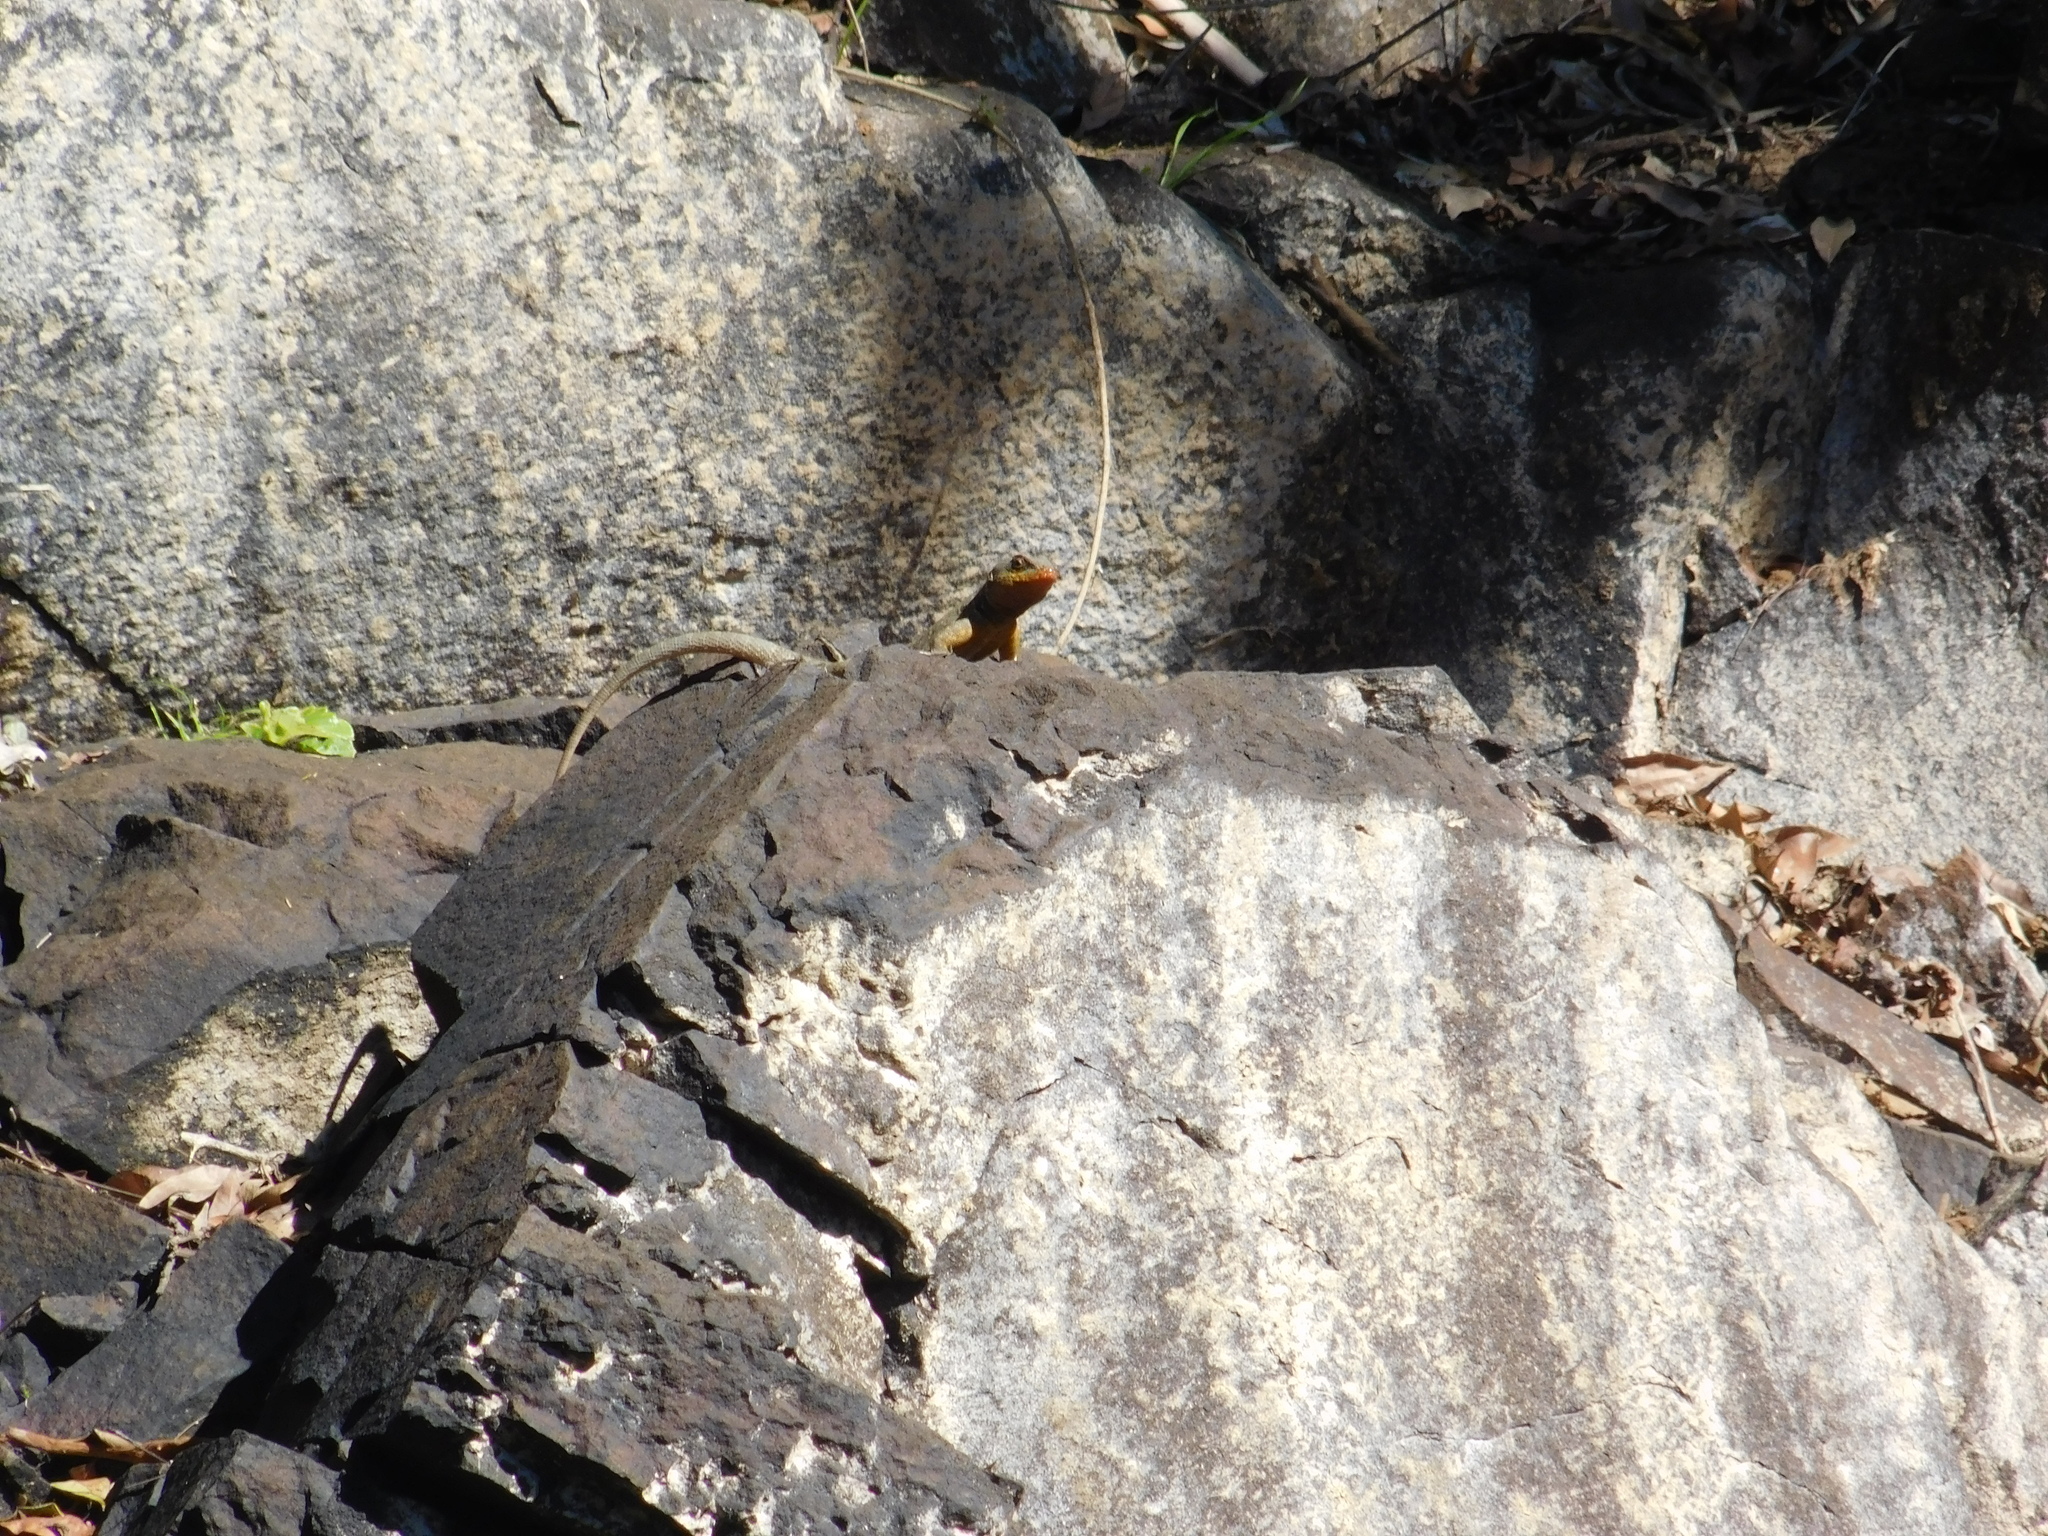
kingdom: Animalia
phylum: Chordata
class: Squamata
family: Tropiduridae
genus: Tropidurus
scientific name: Tropidurus catalanensis
